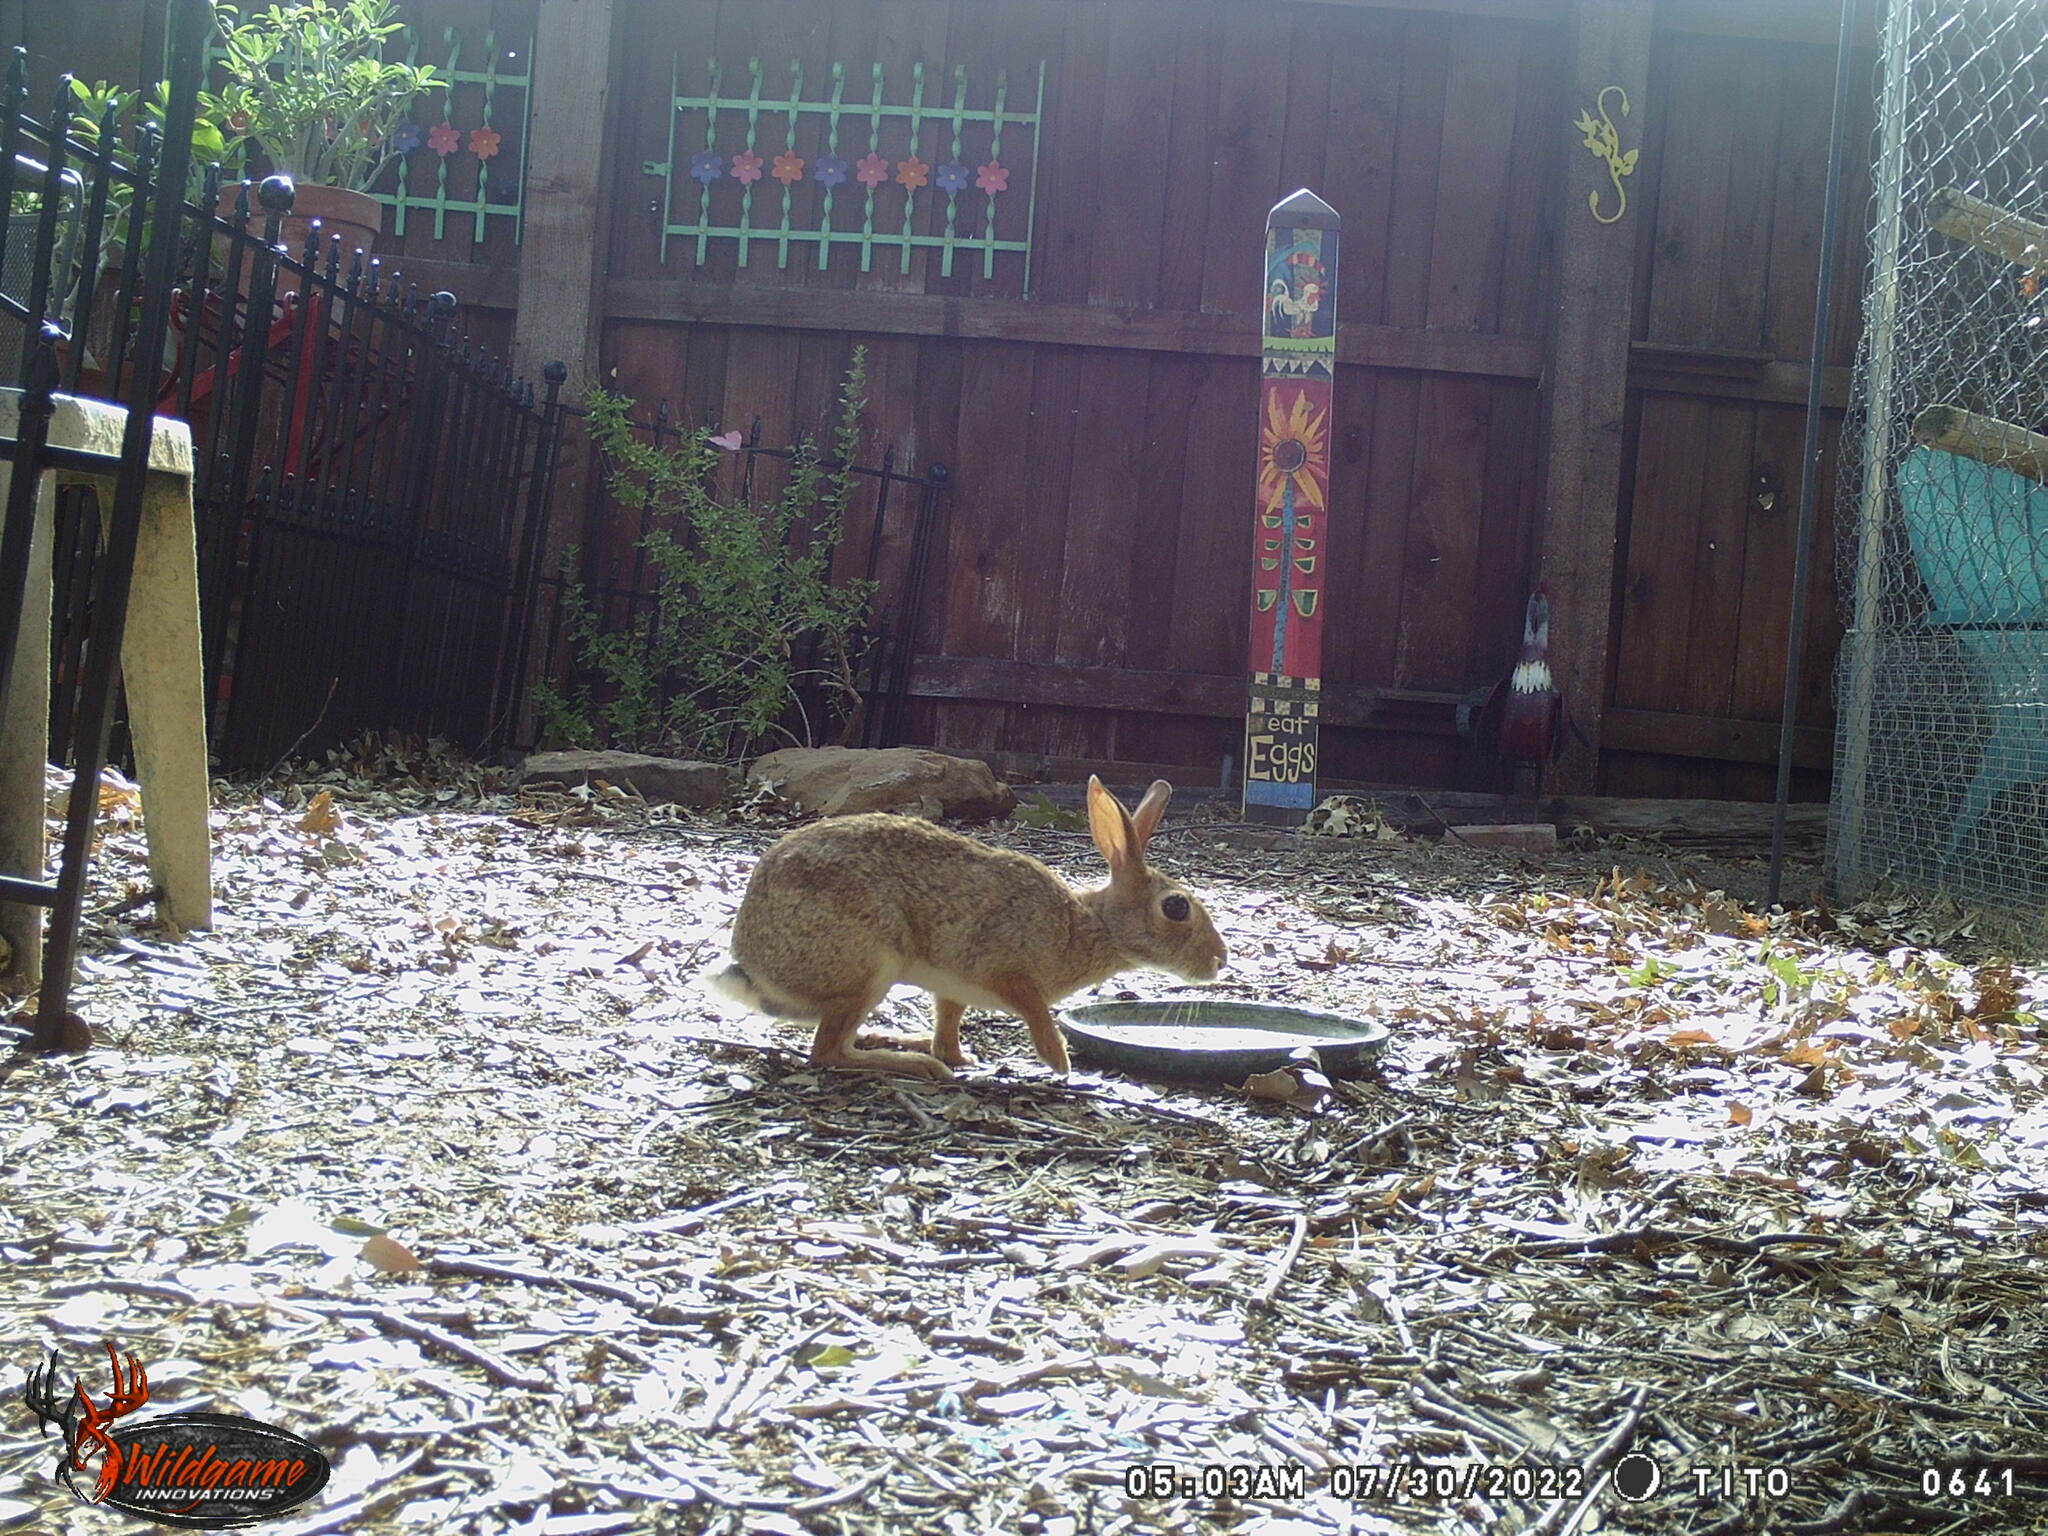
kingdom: Animalia
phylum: Chordata
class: Mammalia
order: Lagomorpha
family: Leporidae
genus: Sylvilagus
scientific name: Sylvilagus floridanus
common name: Eastern cottontail
